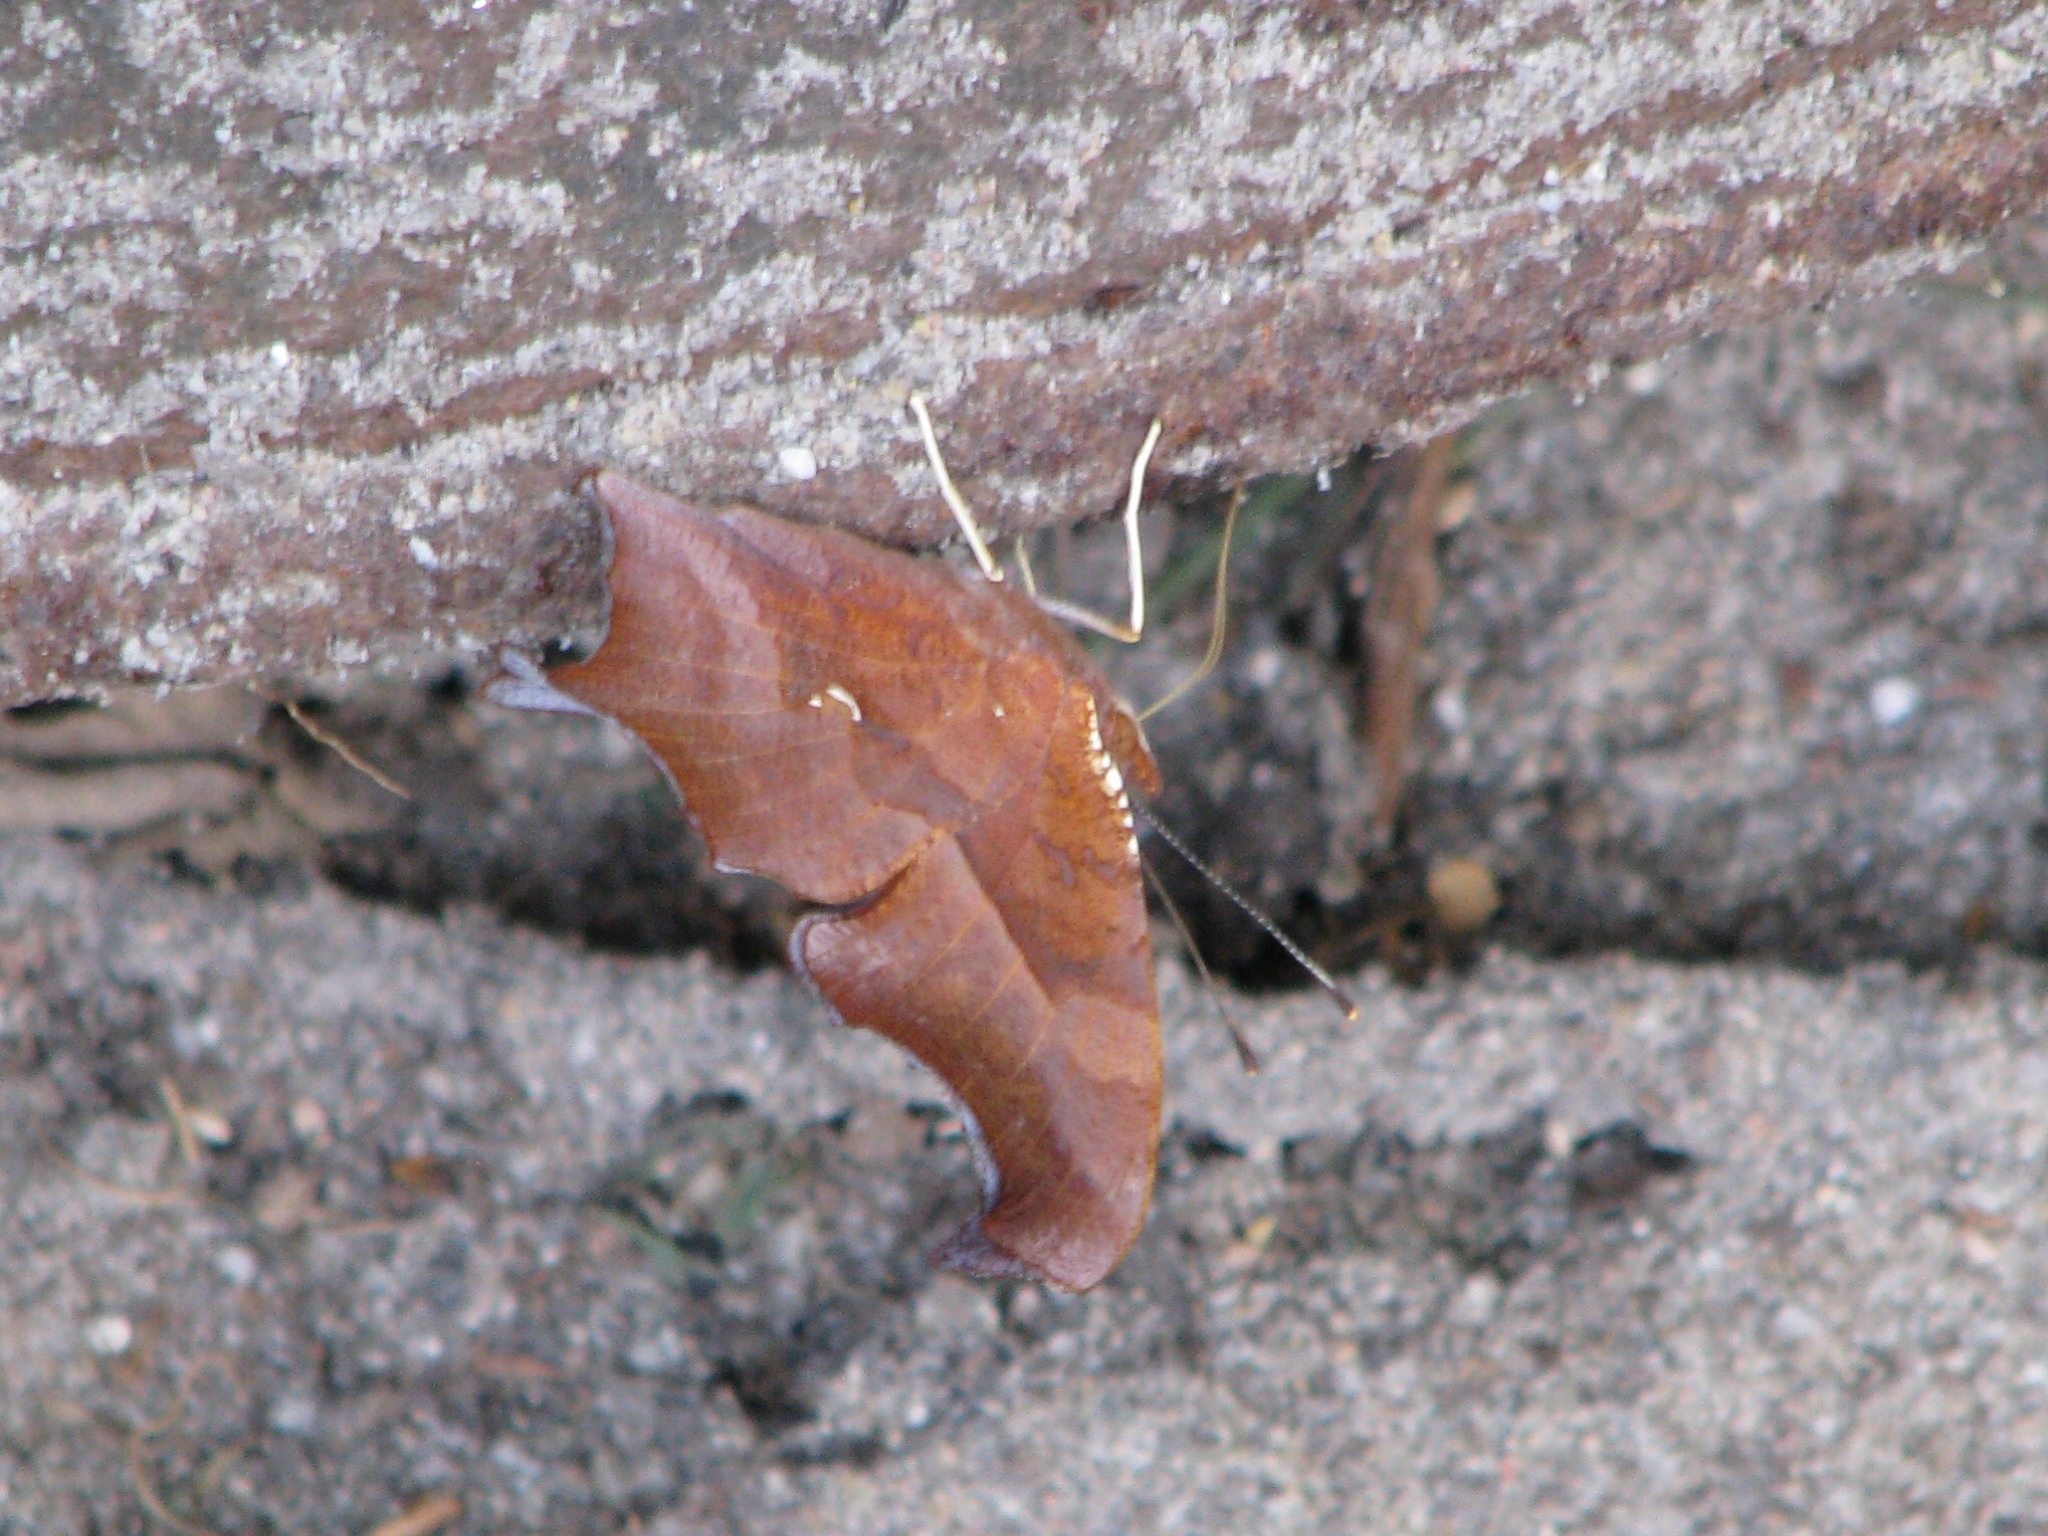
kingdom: Animalia
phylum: Arthropoda
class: Insecta
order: Lepidoptera
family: Nymphalidae
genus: Polygonia
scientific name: Polygonia interrogationis
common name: Question mark
